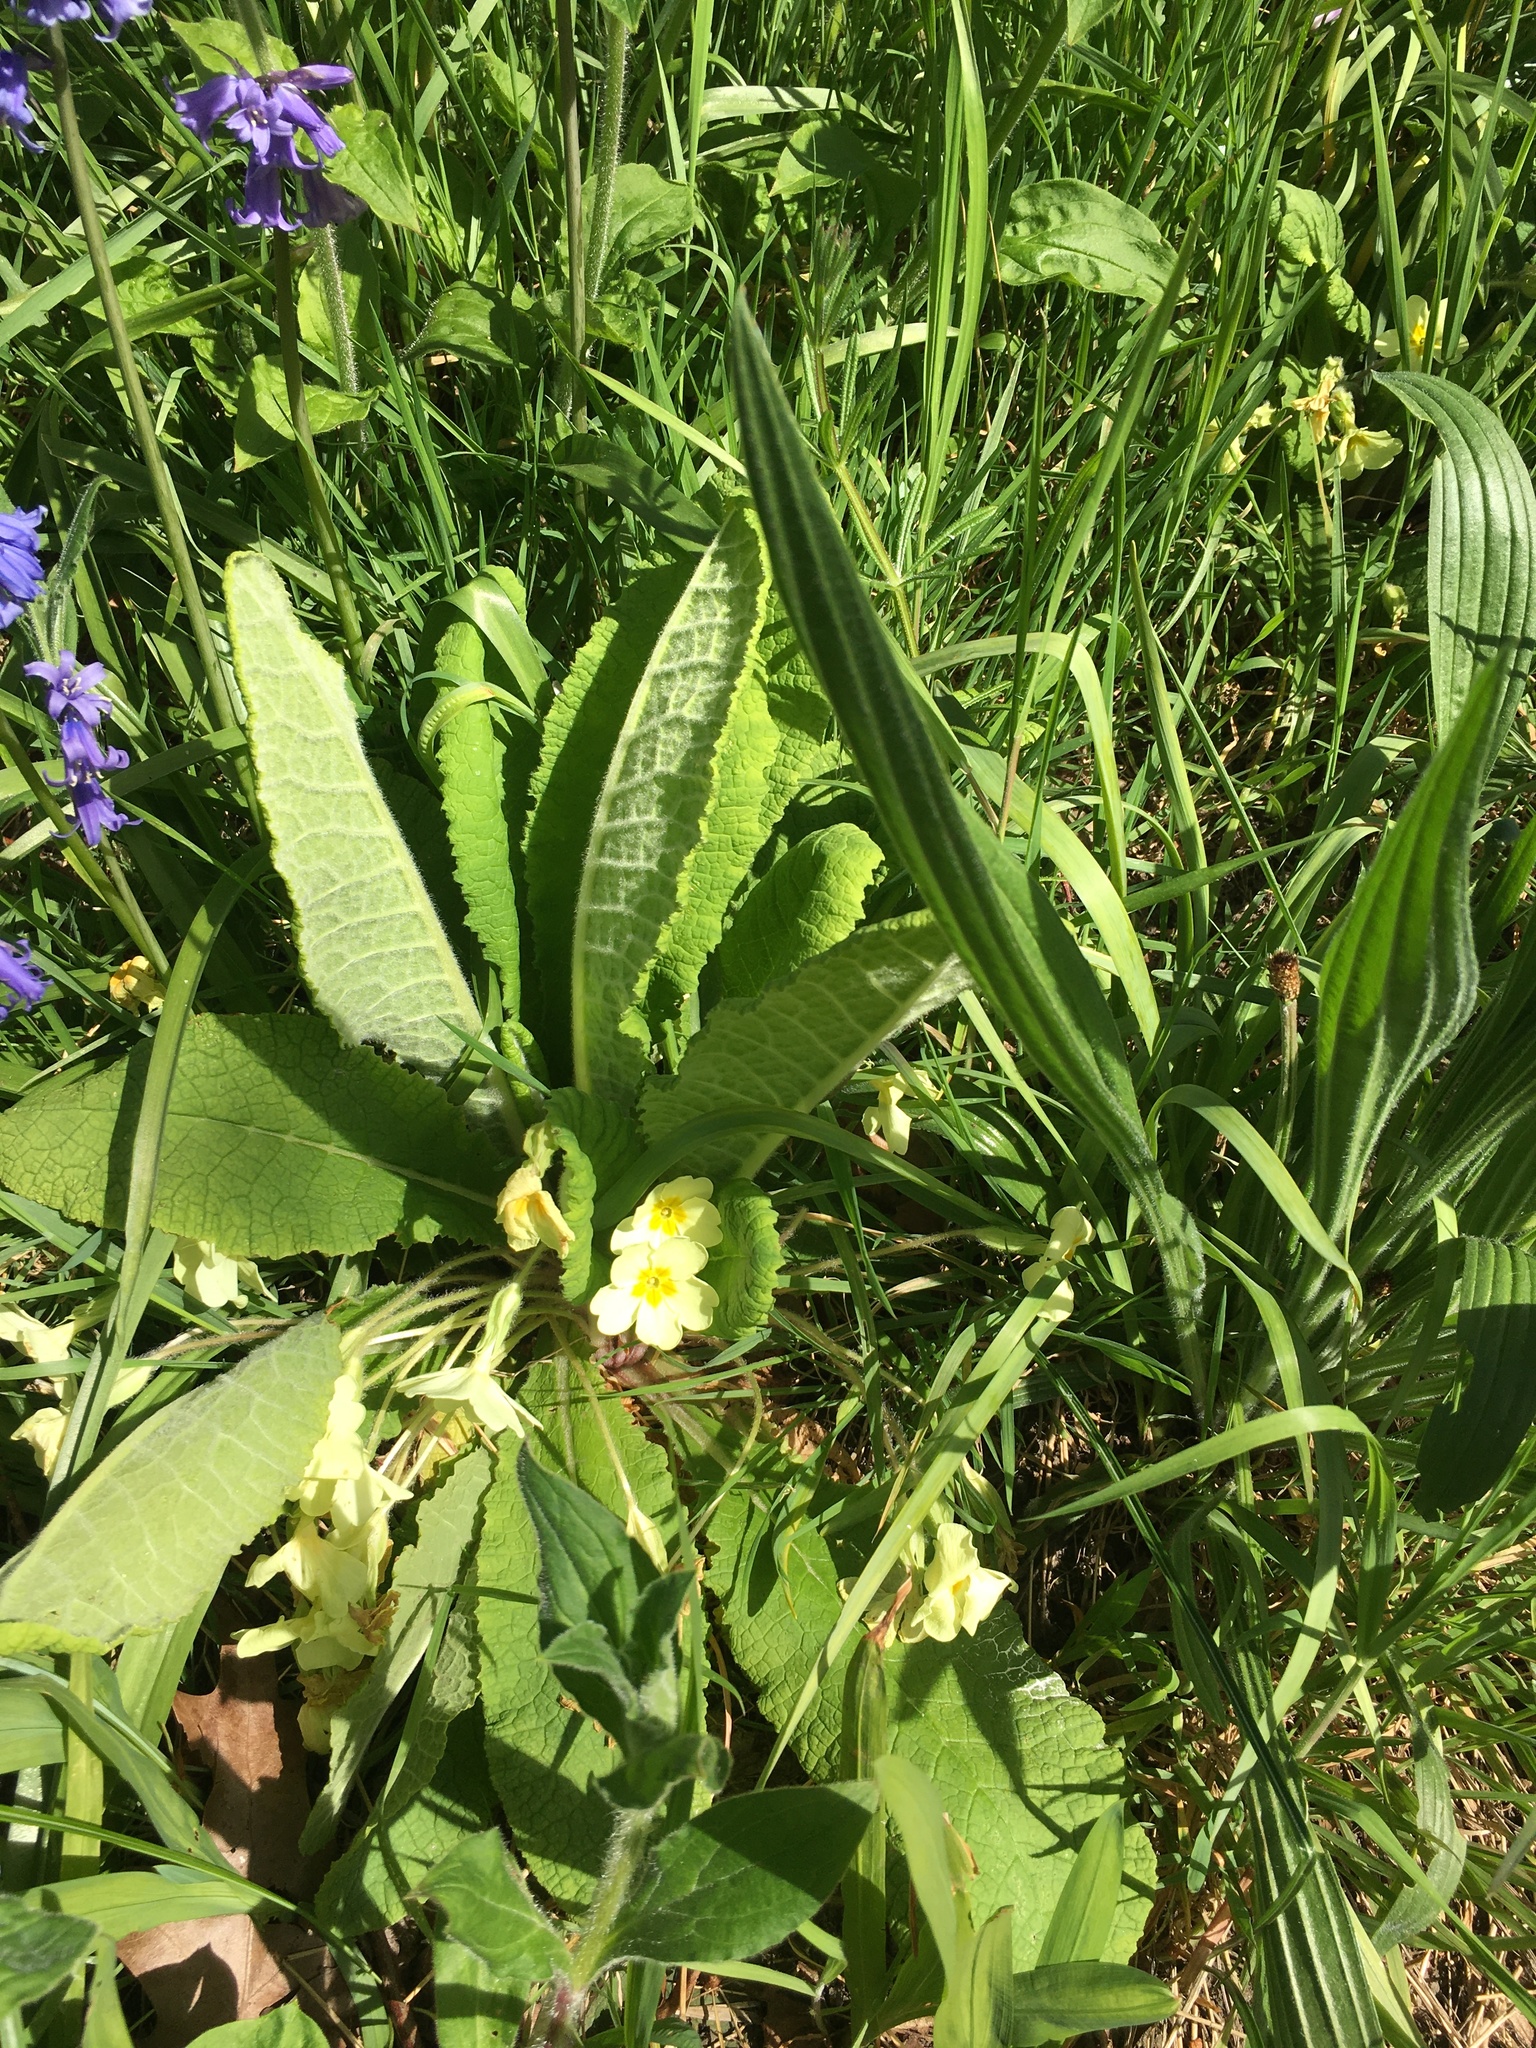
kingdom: Plantae
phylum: Tracheophyta
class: Magnoliopsida
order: Lamiales
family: Plantaginaceae
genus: Plantago
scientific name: Plantago lanceolata
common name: Ribwort plantain
